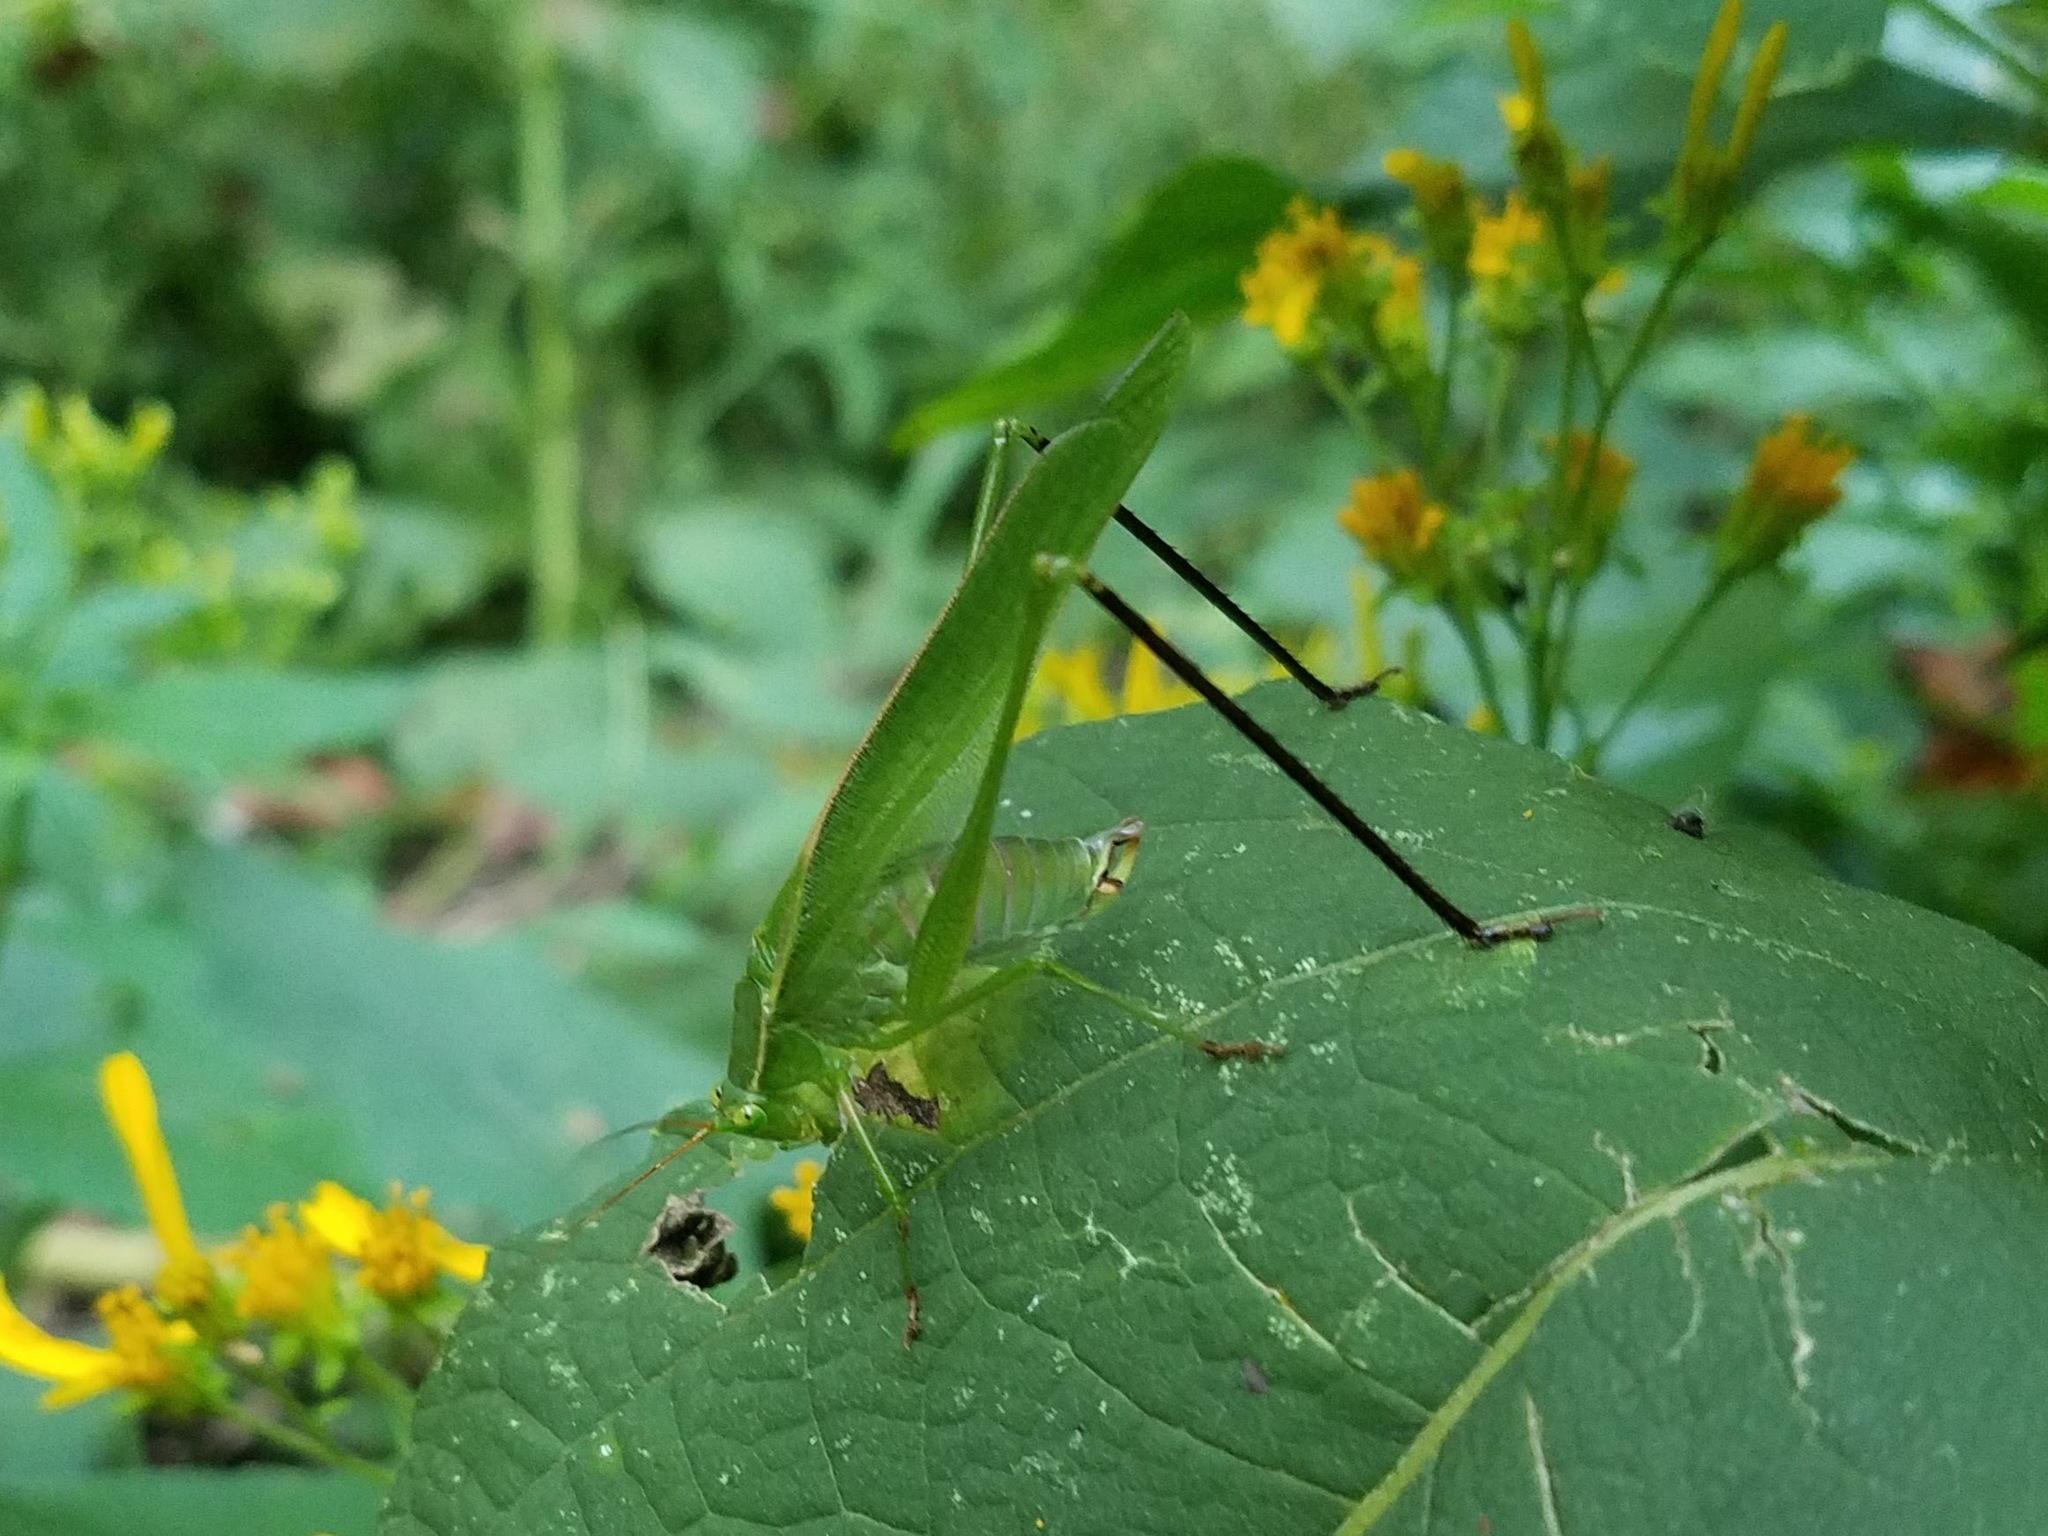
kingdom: Animalia
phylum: Arthropoda
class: Insecta
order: Orthoptera
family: Tettigoniidae
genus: Scudderia
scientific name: Scudderia furcata
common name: Fork-tailed bush katydid
